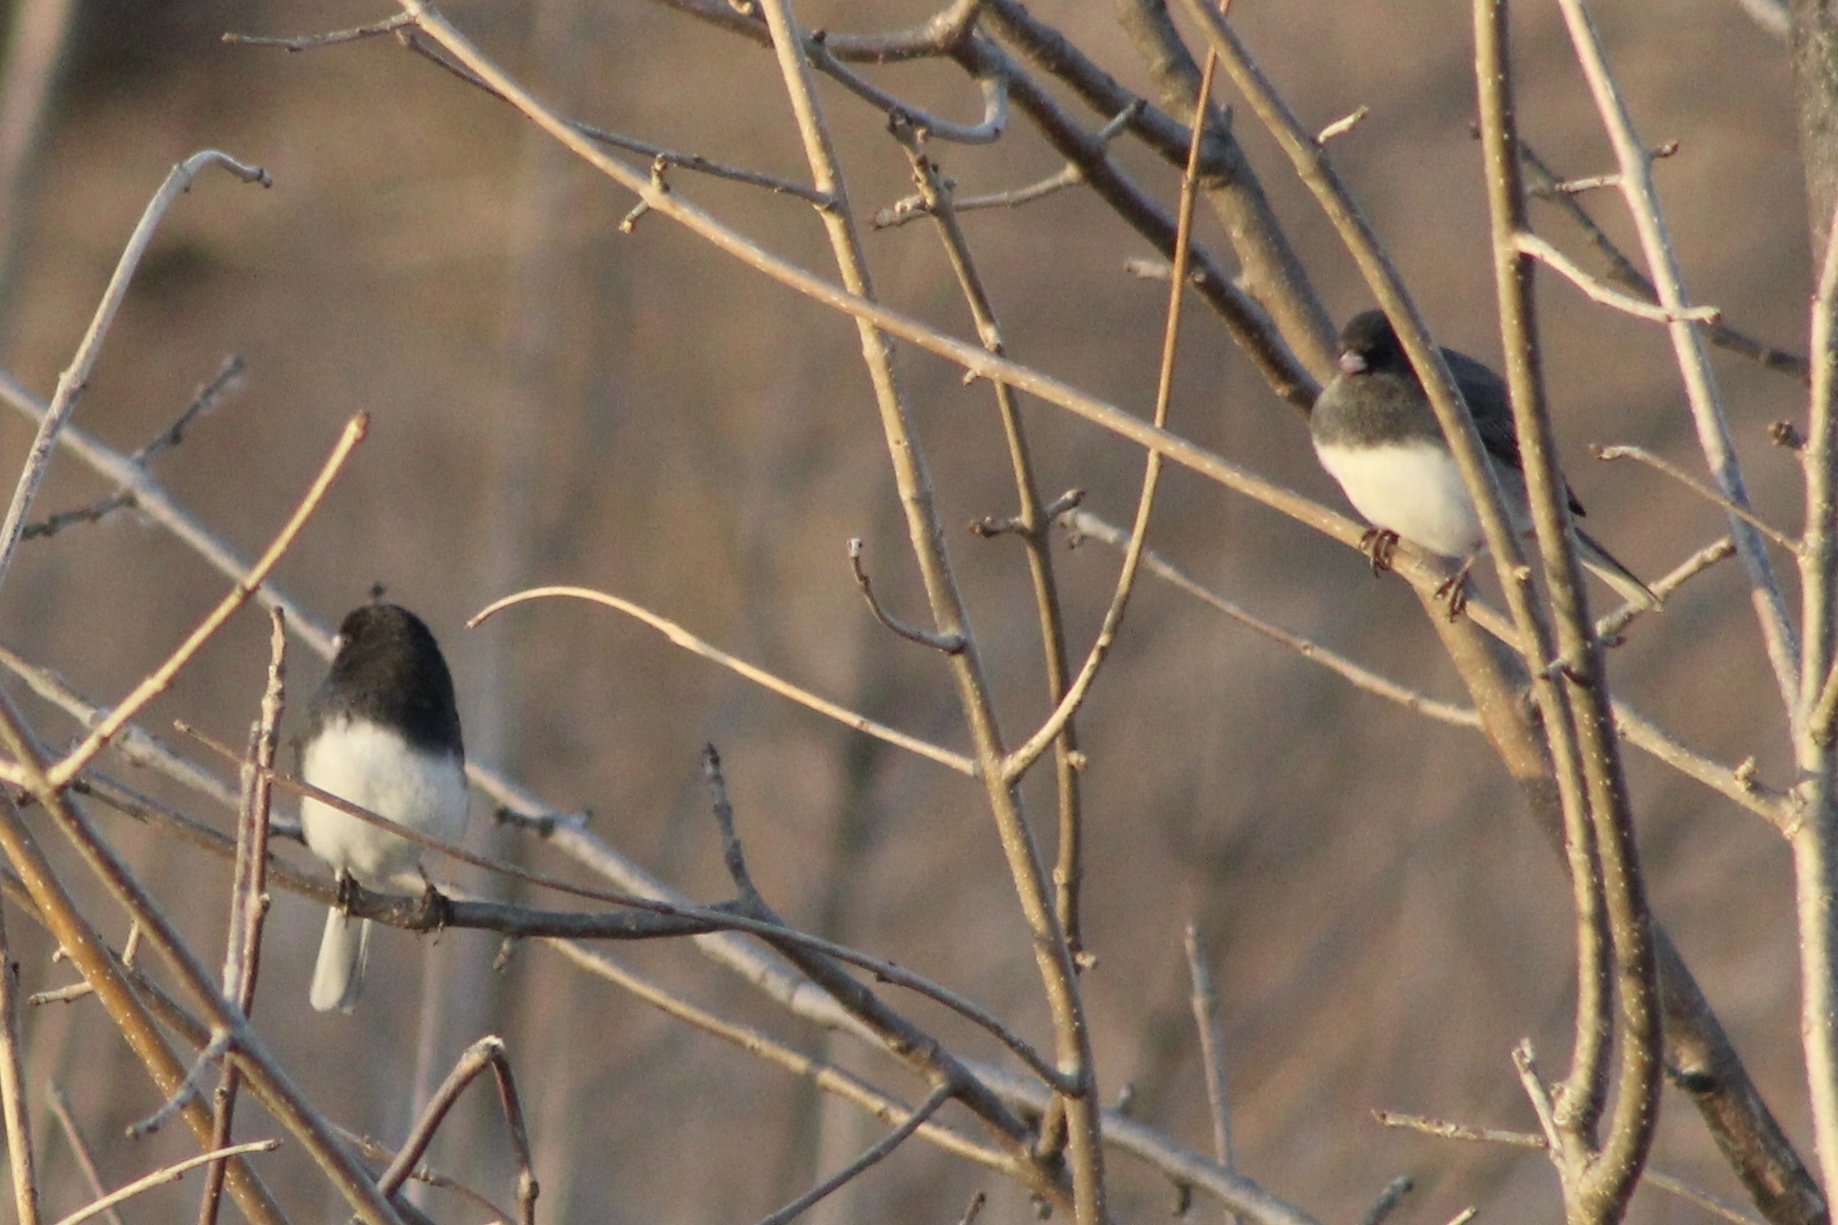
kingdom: Animalia
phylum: Chordata
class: Aves
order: Passeriformes
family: Passerellidae
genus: Junco
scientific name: Junco hyemalis
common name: Dark-eyed junco
